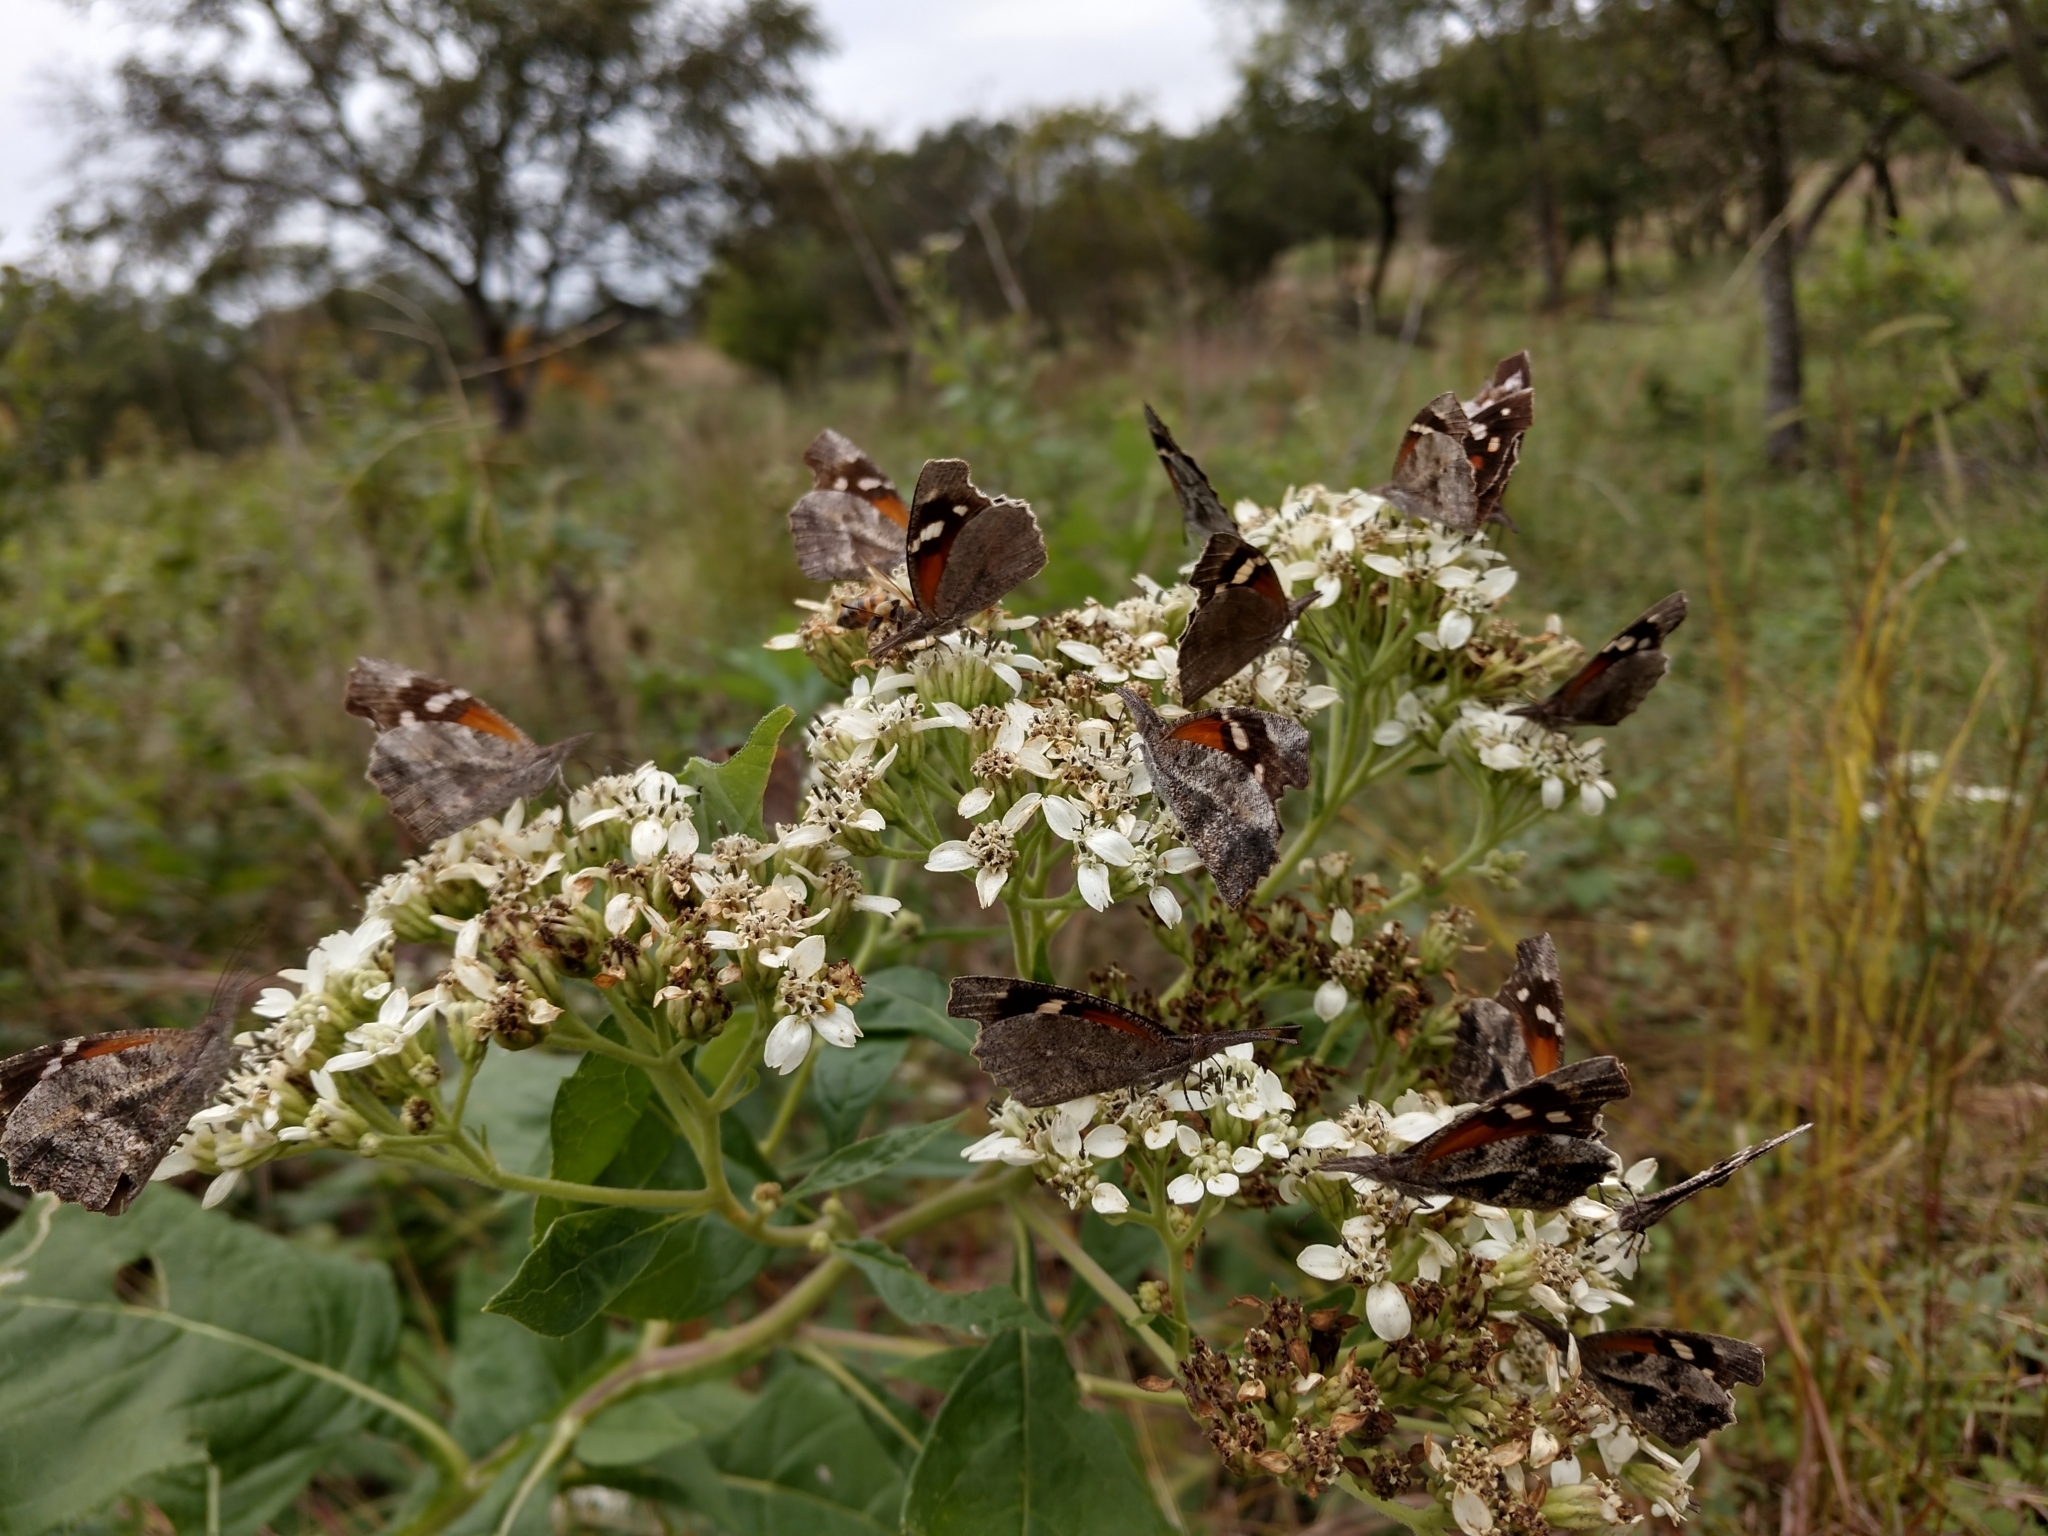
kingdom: Animalia
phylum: Arthropoda
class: Insecta
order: Lepidoptera
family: Nymphalidae
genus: Libytheana
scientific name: Libytheana carinenta
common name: American snout
